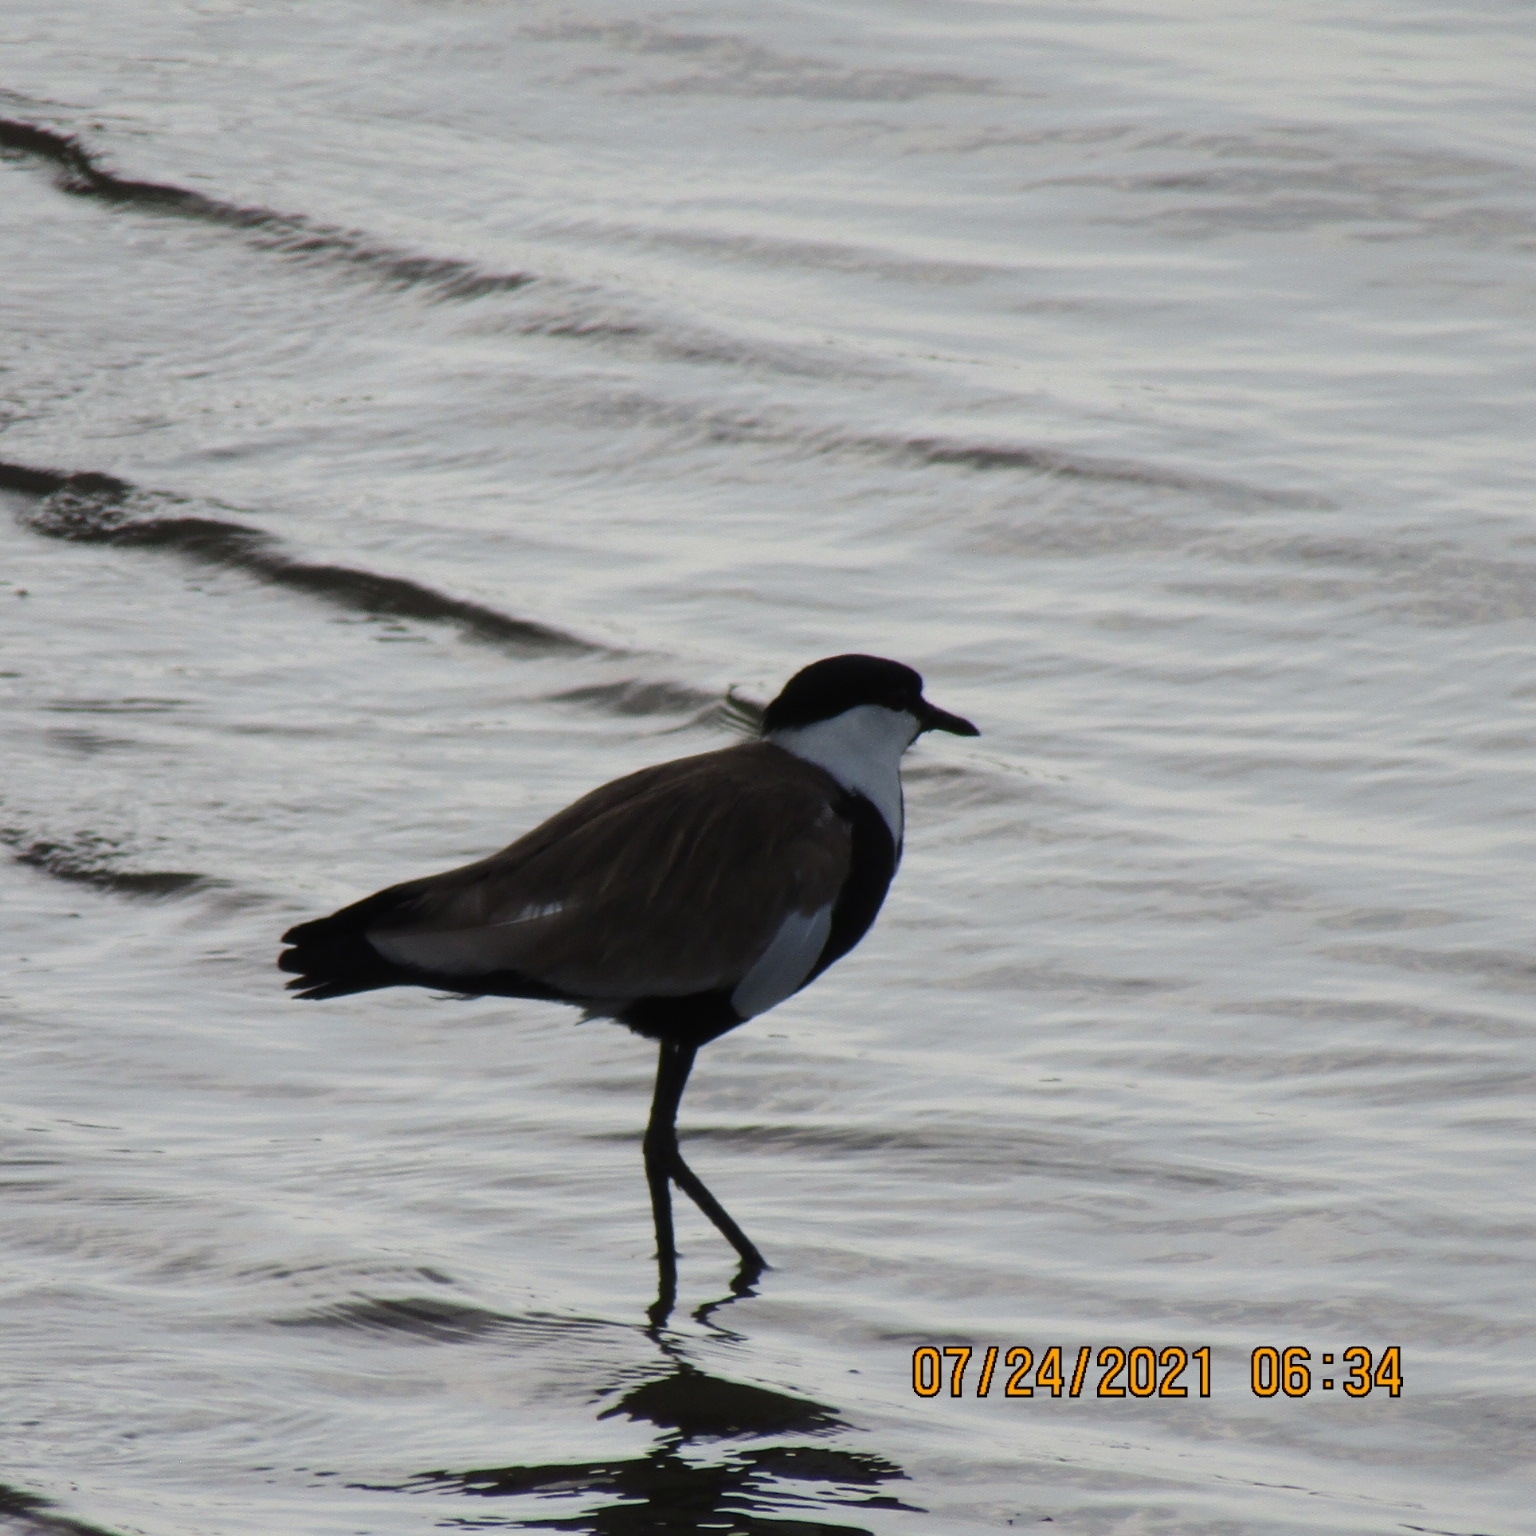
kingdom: Animalia
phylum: Chordata
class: Aves
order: Charadriiformes
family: Charadriidae
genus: Vanellus
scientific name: Vanellus spinosus
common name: Spur-winged lapwing
